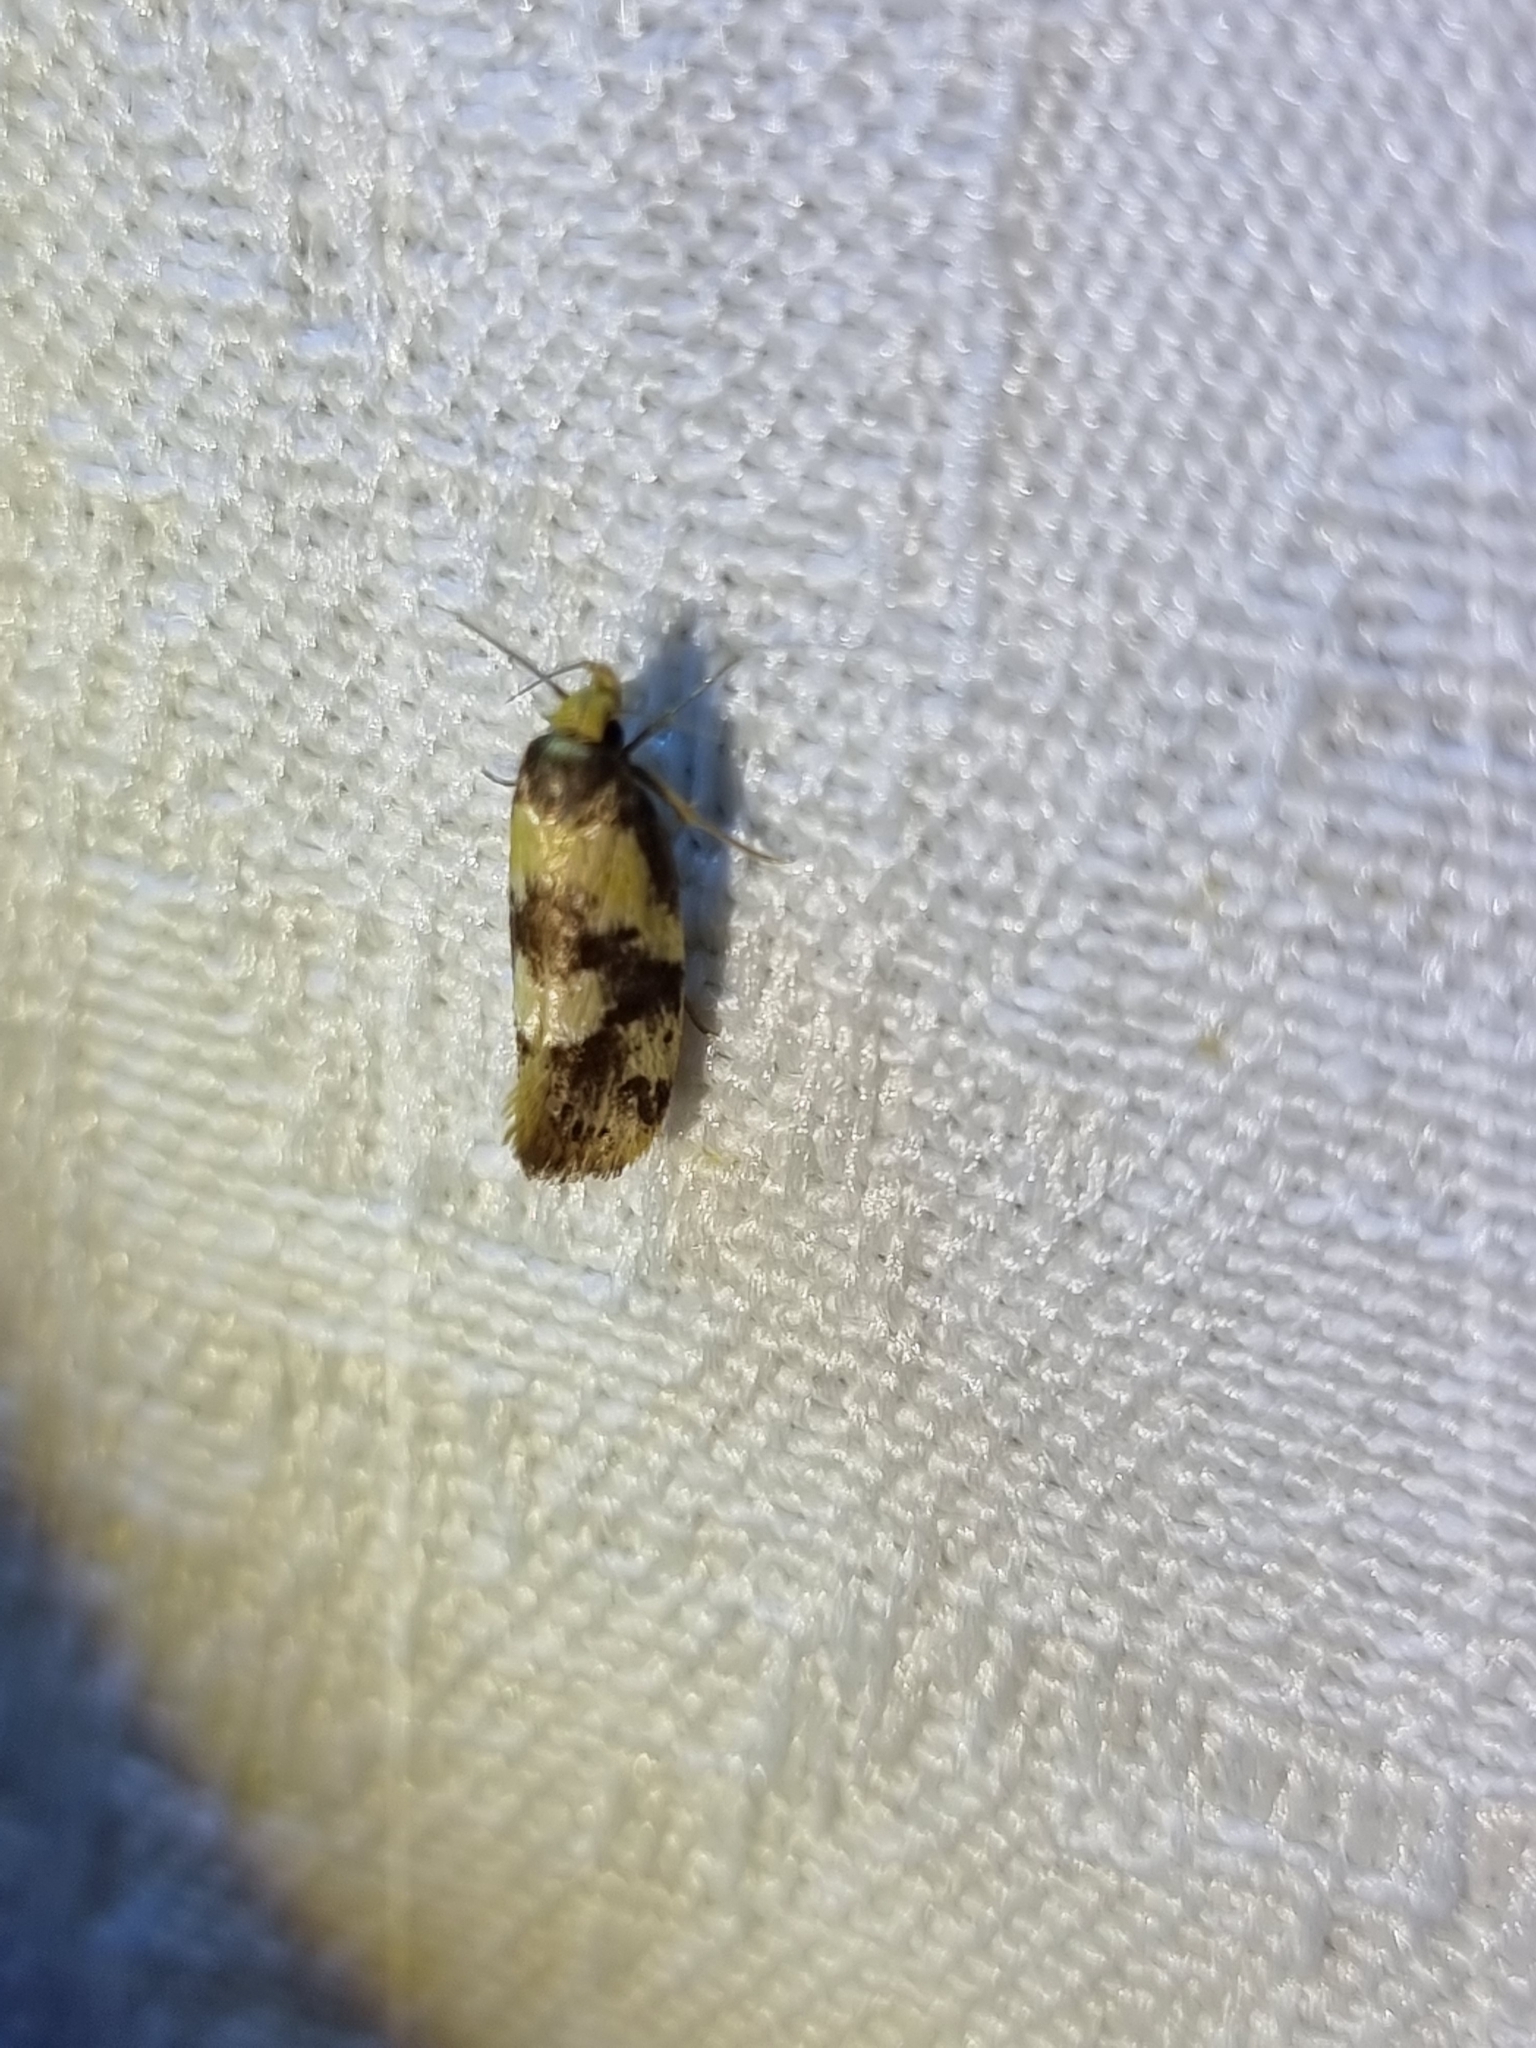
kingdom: Animalia
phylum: Arthropoda
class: Insecta
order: Lepidoptera
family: Oecophoridae
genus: Eulechria
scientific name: Eulechria marmorata
